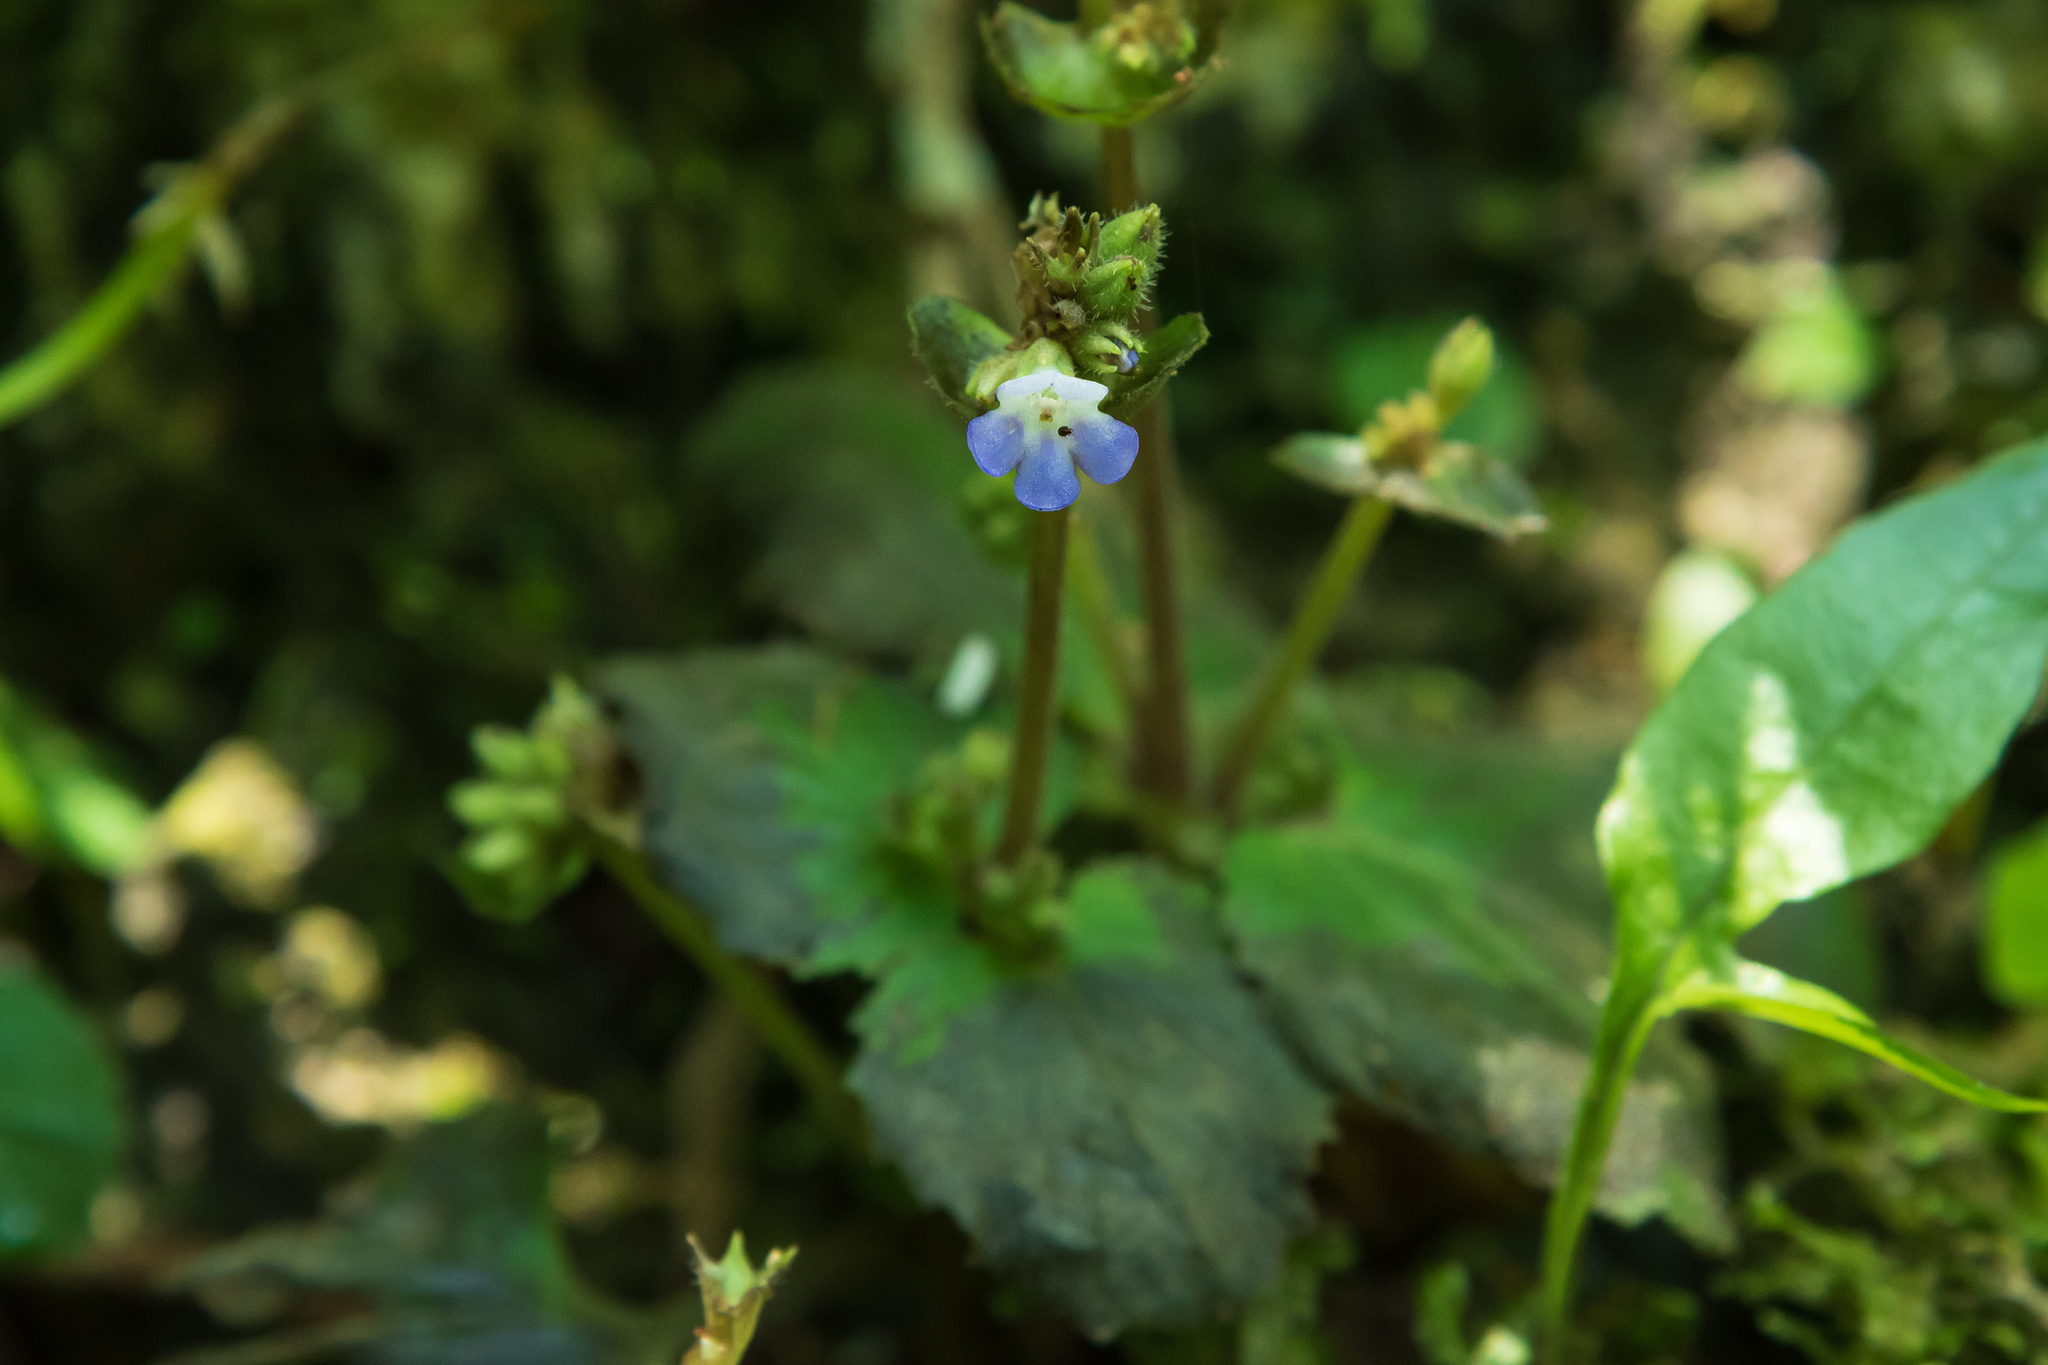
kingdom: Plantae
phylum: Tracheophyta
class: Magnoliopsida
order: Lamiales
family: Gesneriaceae
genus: Epithema
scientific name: Epithema ceylanicum
